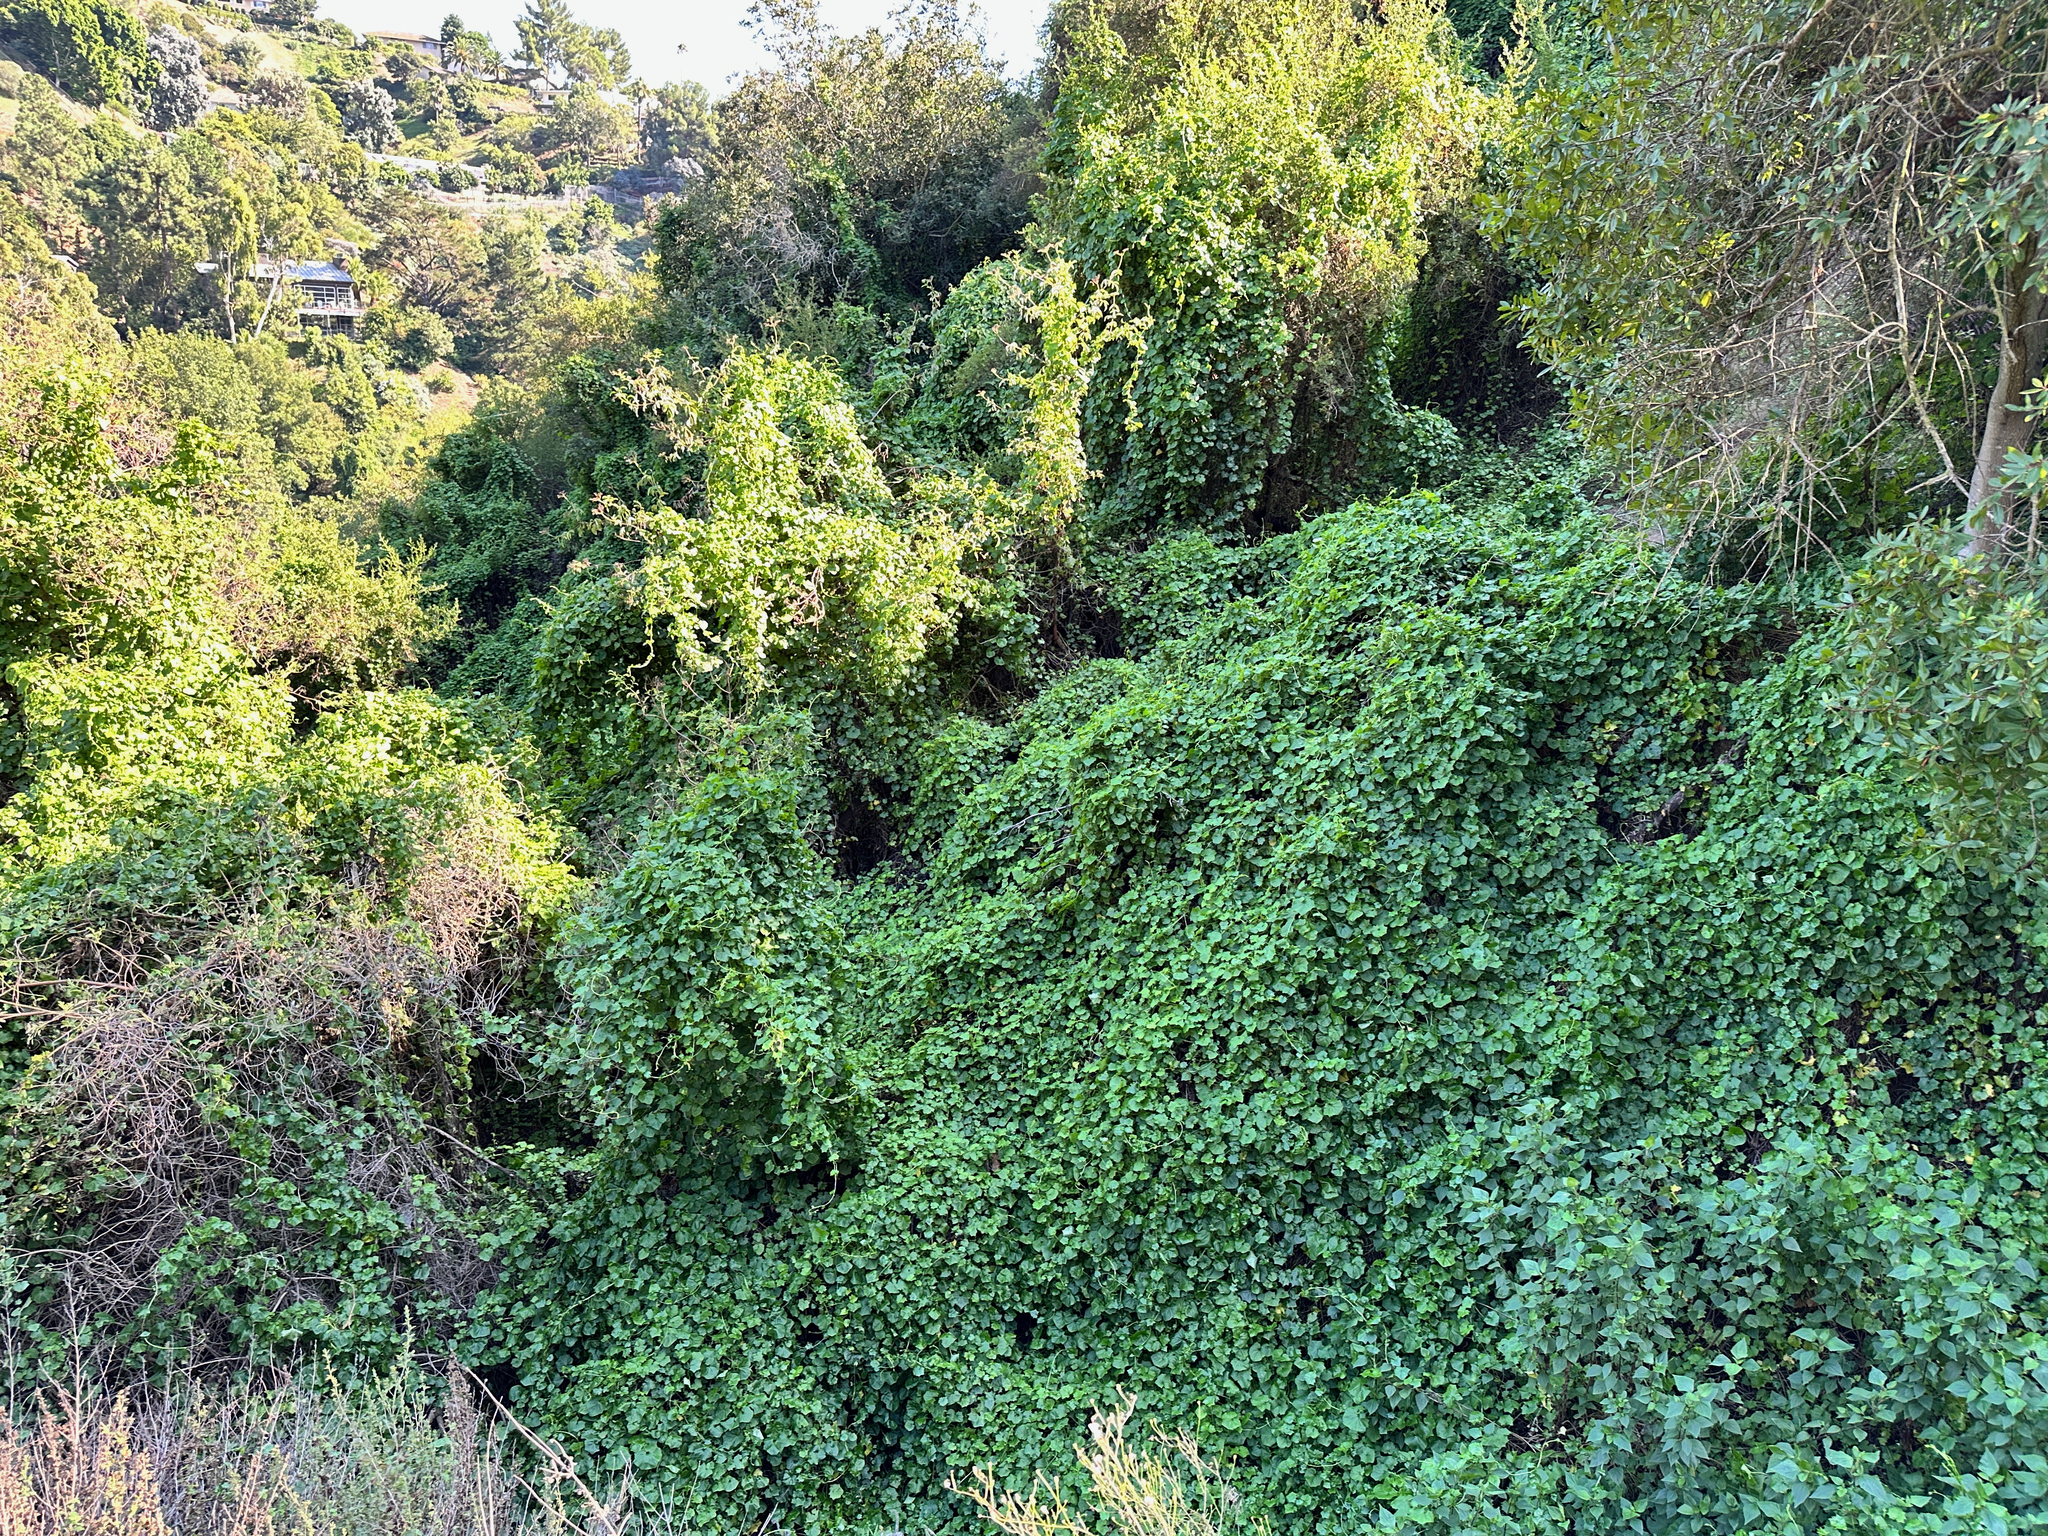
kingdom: Plantae
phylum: Tracheophyta
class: Magnoliopsida
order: Asterales
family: Asteraceae
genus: Delairea
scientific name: Delairea odorata
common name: Cape-ivy
